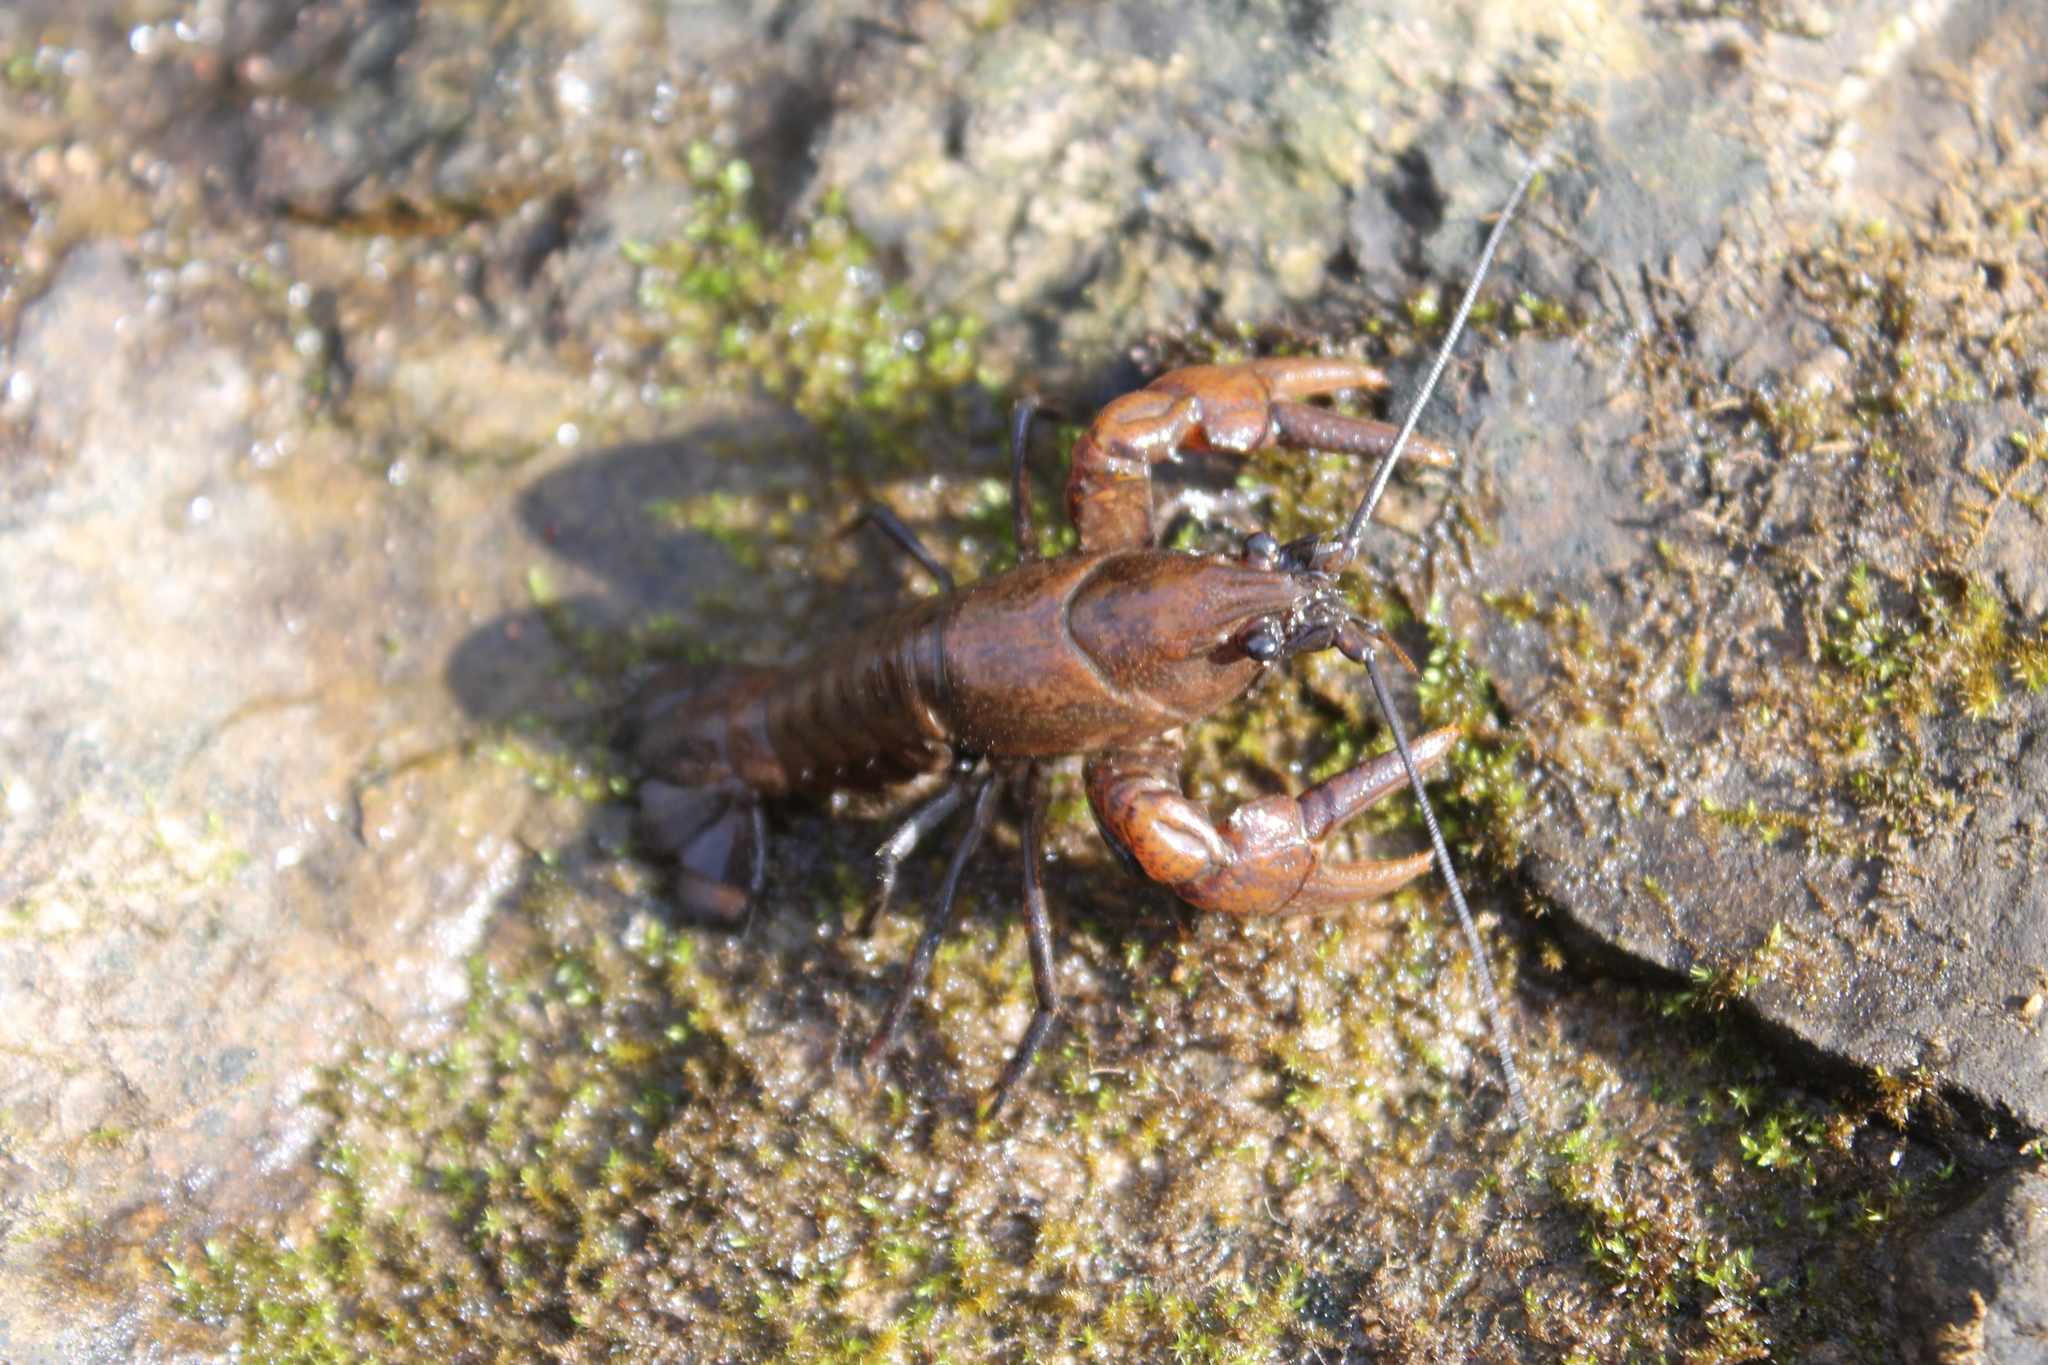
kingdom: Animalia
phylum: Arthropoda
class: Malacostraca
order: Decapoda
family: Cambaridae
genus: Cambarus
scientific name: Cambarus striatus
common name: Ambiguous crayfish
